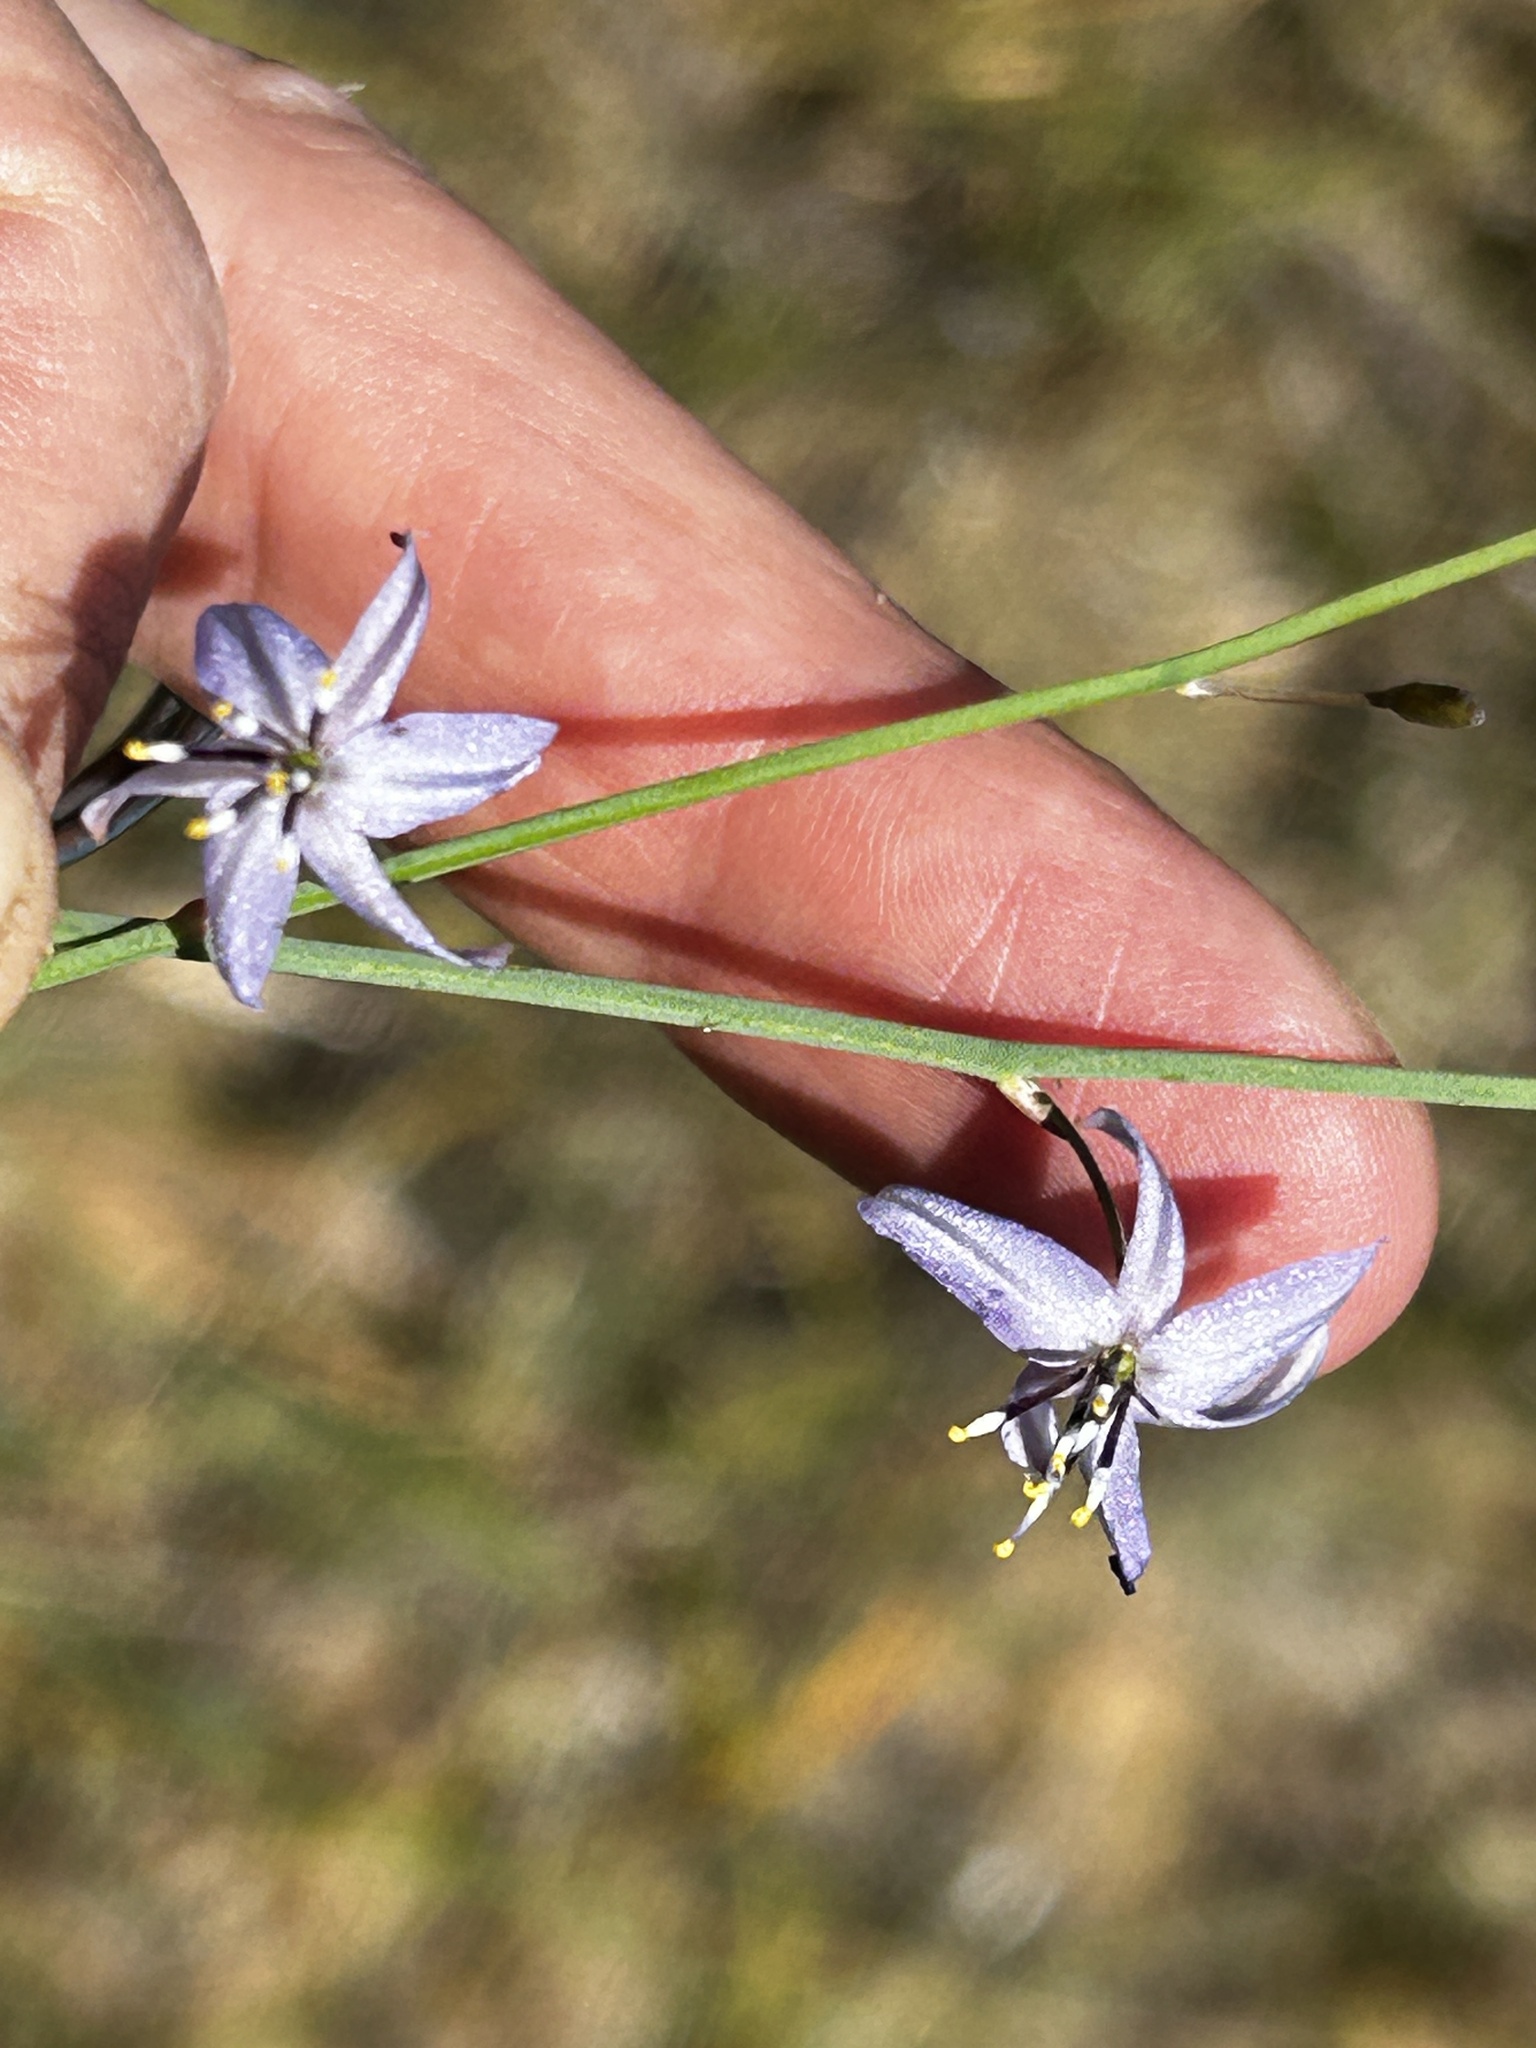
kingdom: Plantae
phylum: Tracheophyta
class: Liliopsida
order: Asparagales
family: Asphodelaceae
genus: Caesia
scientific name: Caesia contorta
